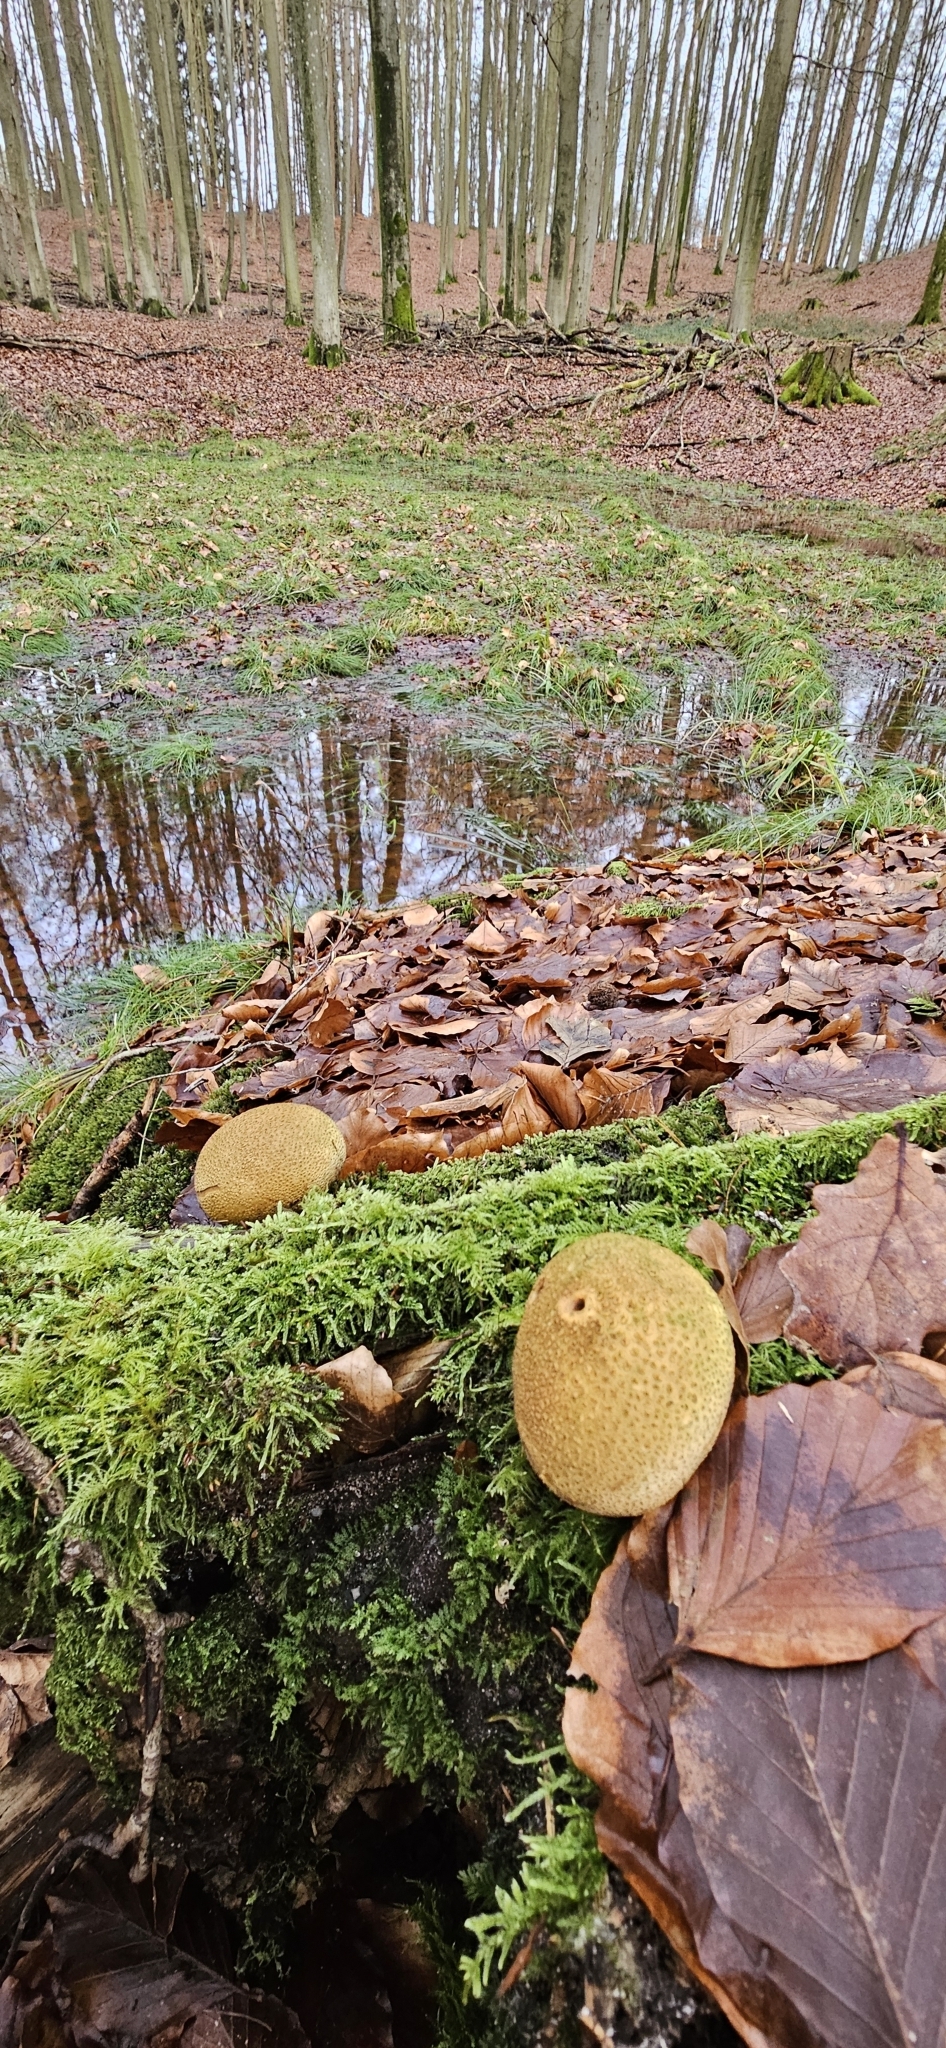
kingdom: Fungi
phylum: Basidiomycota
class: Agaricomycetes
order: Boletales
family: Sclerodermataceae
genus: Scleroderma
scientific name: Scleroderma citrinum
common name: Common earthball
